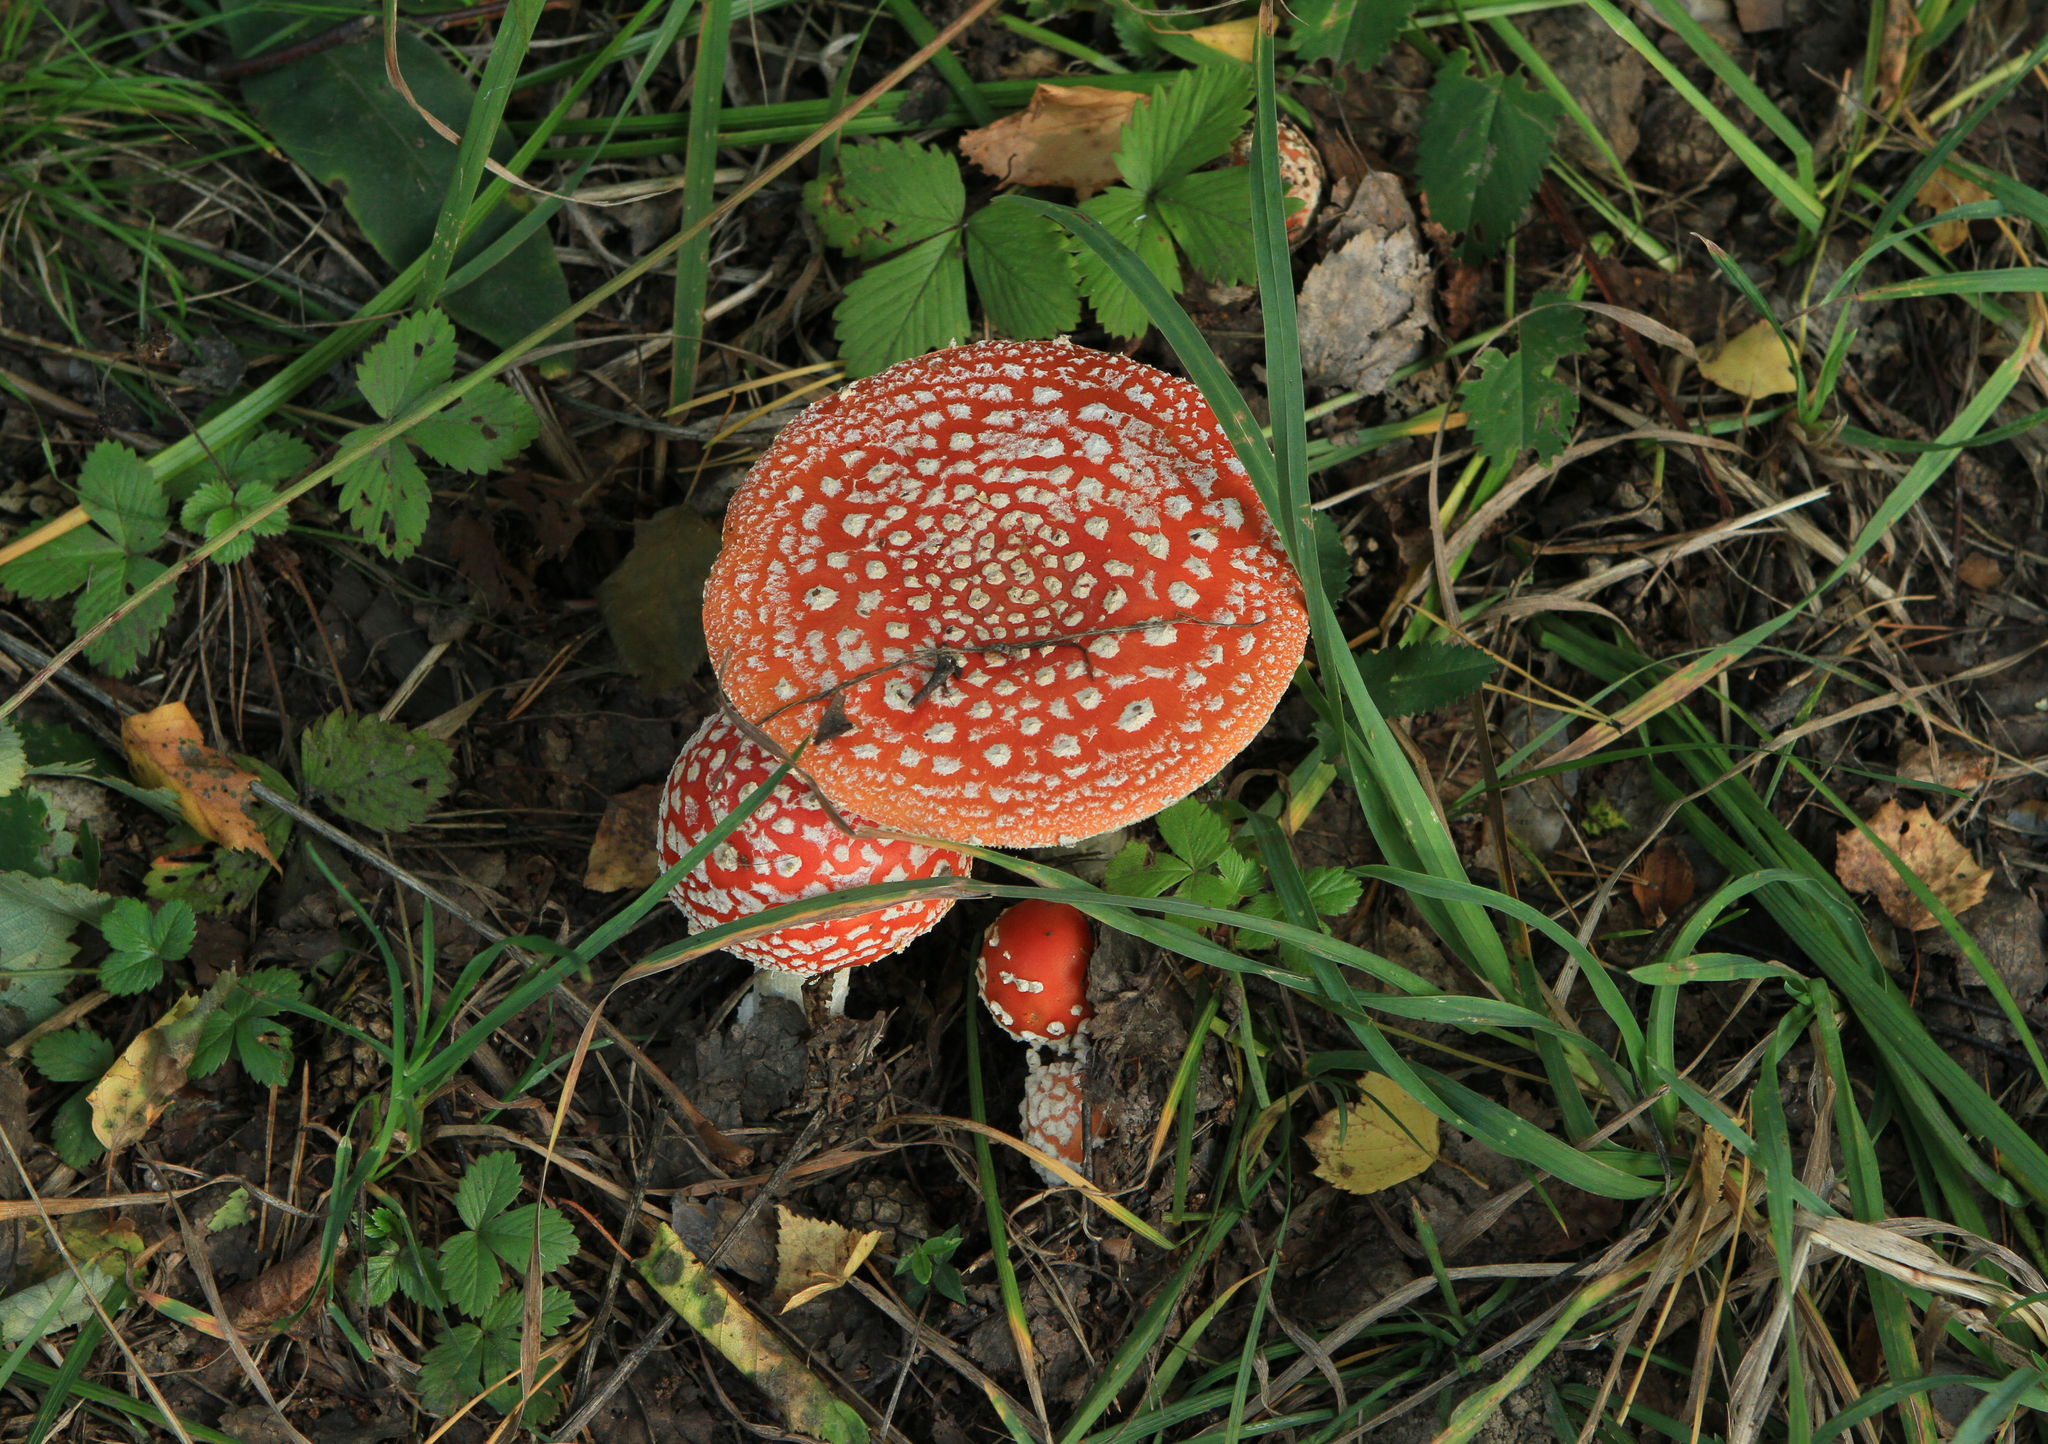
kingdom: Fungi
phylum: Basidiomycota
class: Agaricomycetes
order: Agaricales
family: Amanitaceae
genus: Amanita
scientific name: Amanita muscaria
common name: Fly agaric
